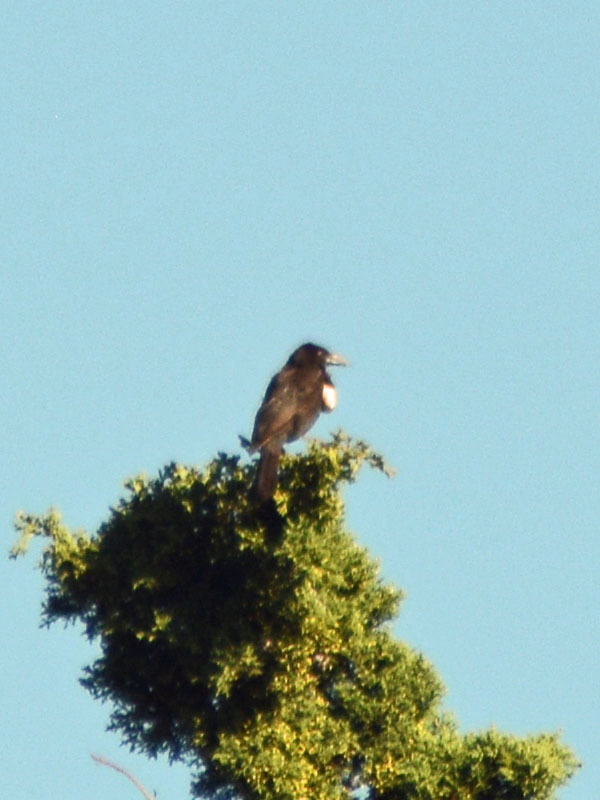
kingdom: Animalia
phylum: Chordata
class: Aves
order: Passeriformes
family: Corvidae
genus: Corvus
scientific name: Corvus corax
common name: Common raven
